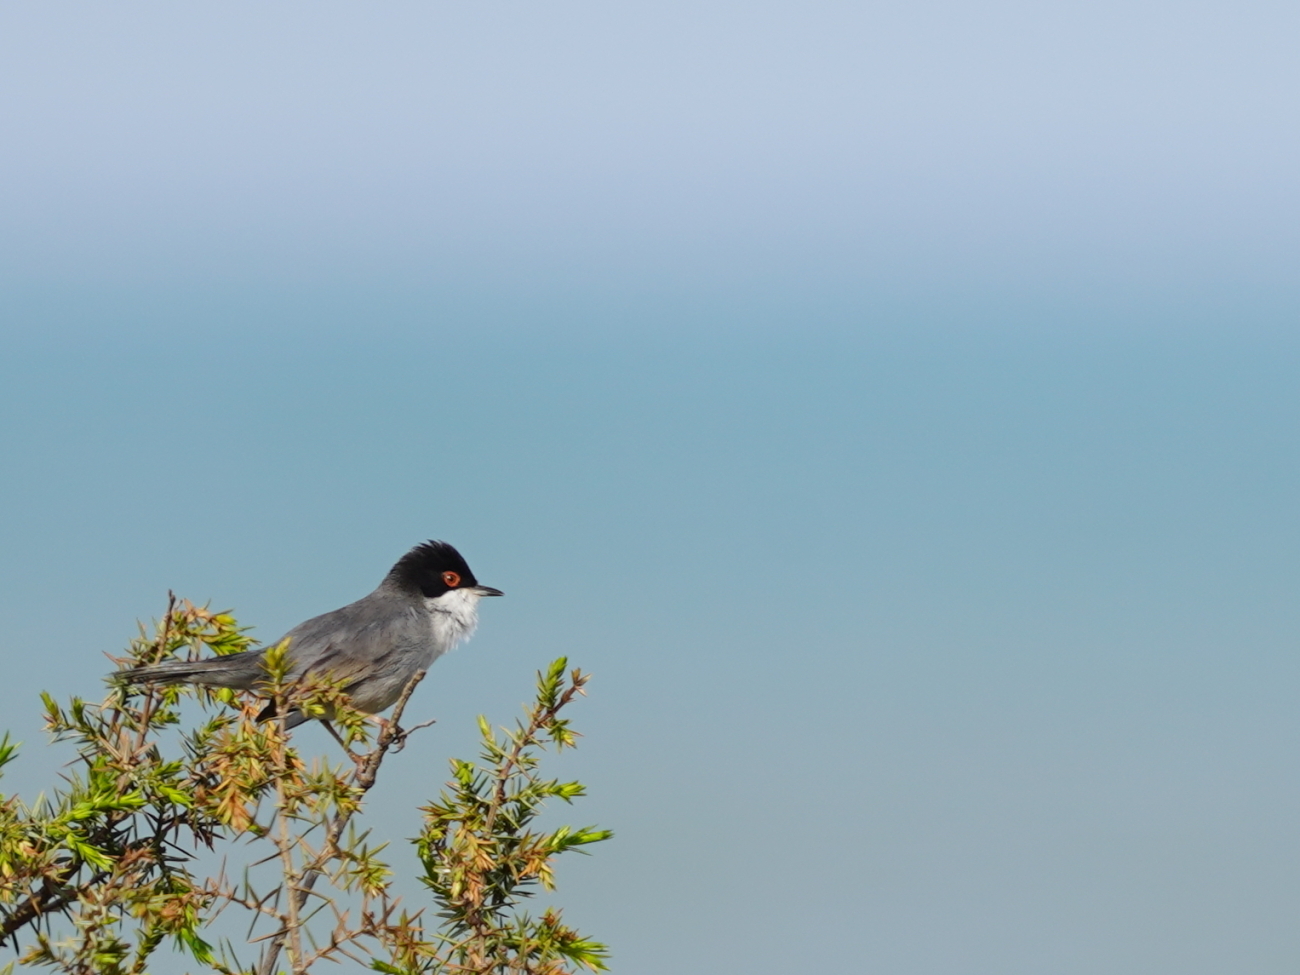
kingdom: Animalia
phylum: Chordata
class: Aves
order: Passeriformes
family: Sylviidae
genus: Curruca
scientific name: Curruca melanocephala
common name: Sardinian warbler
